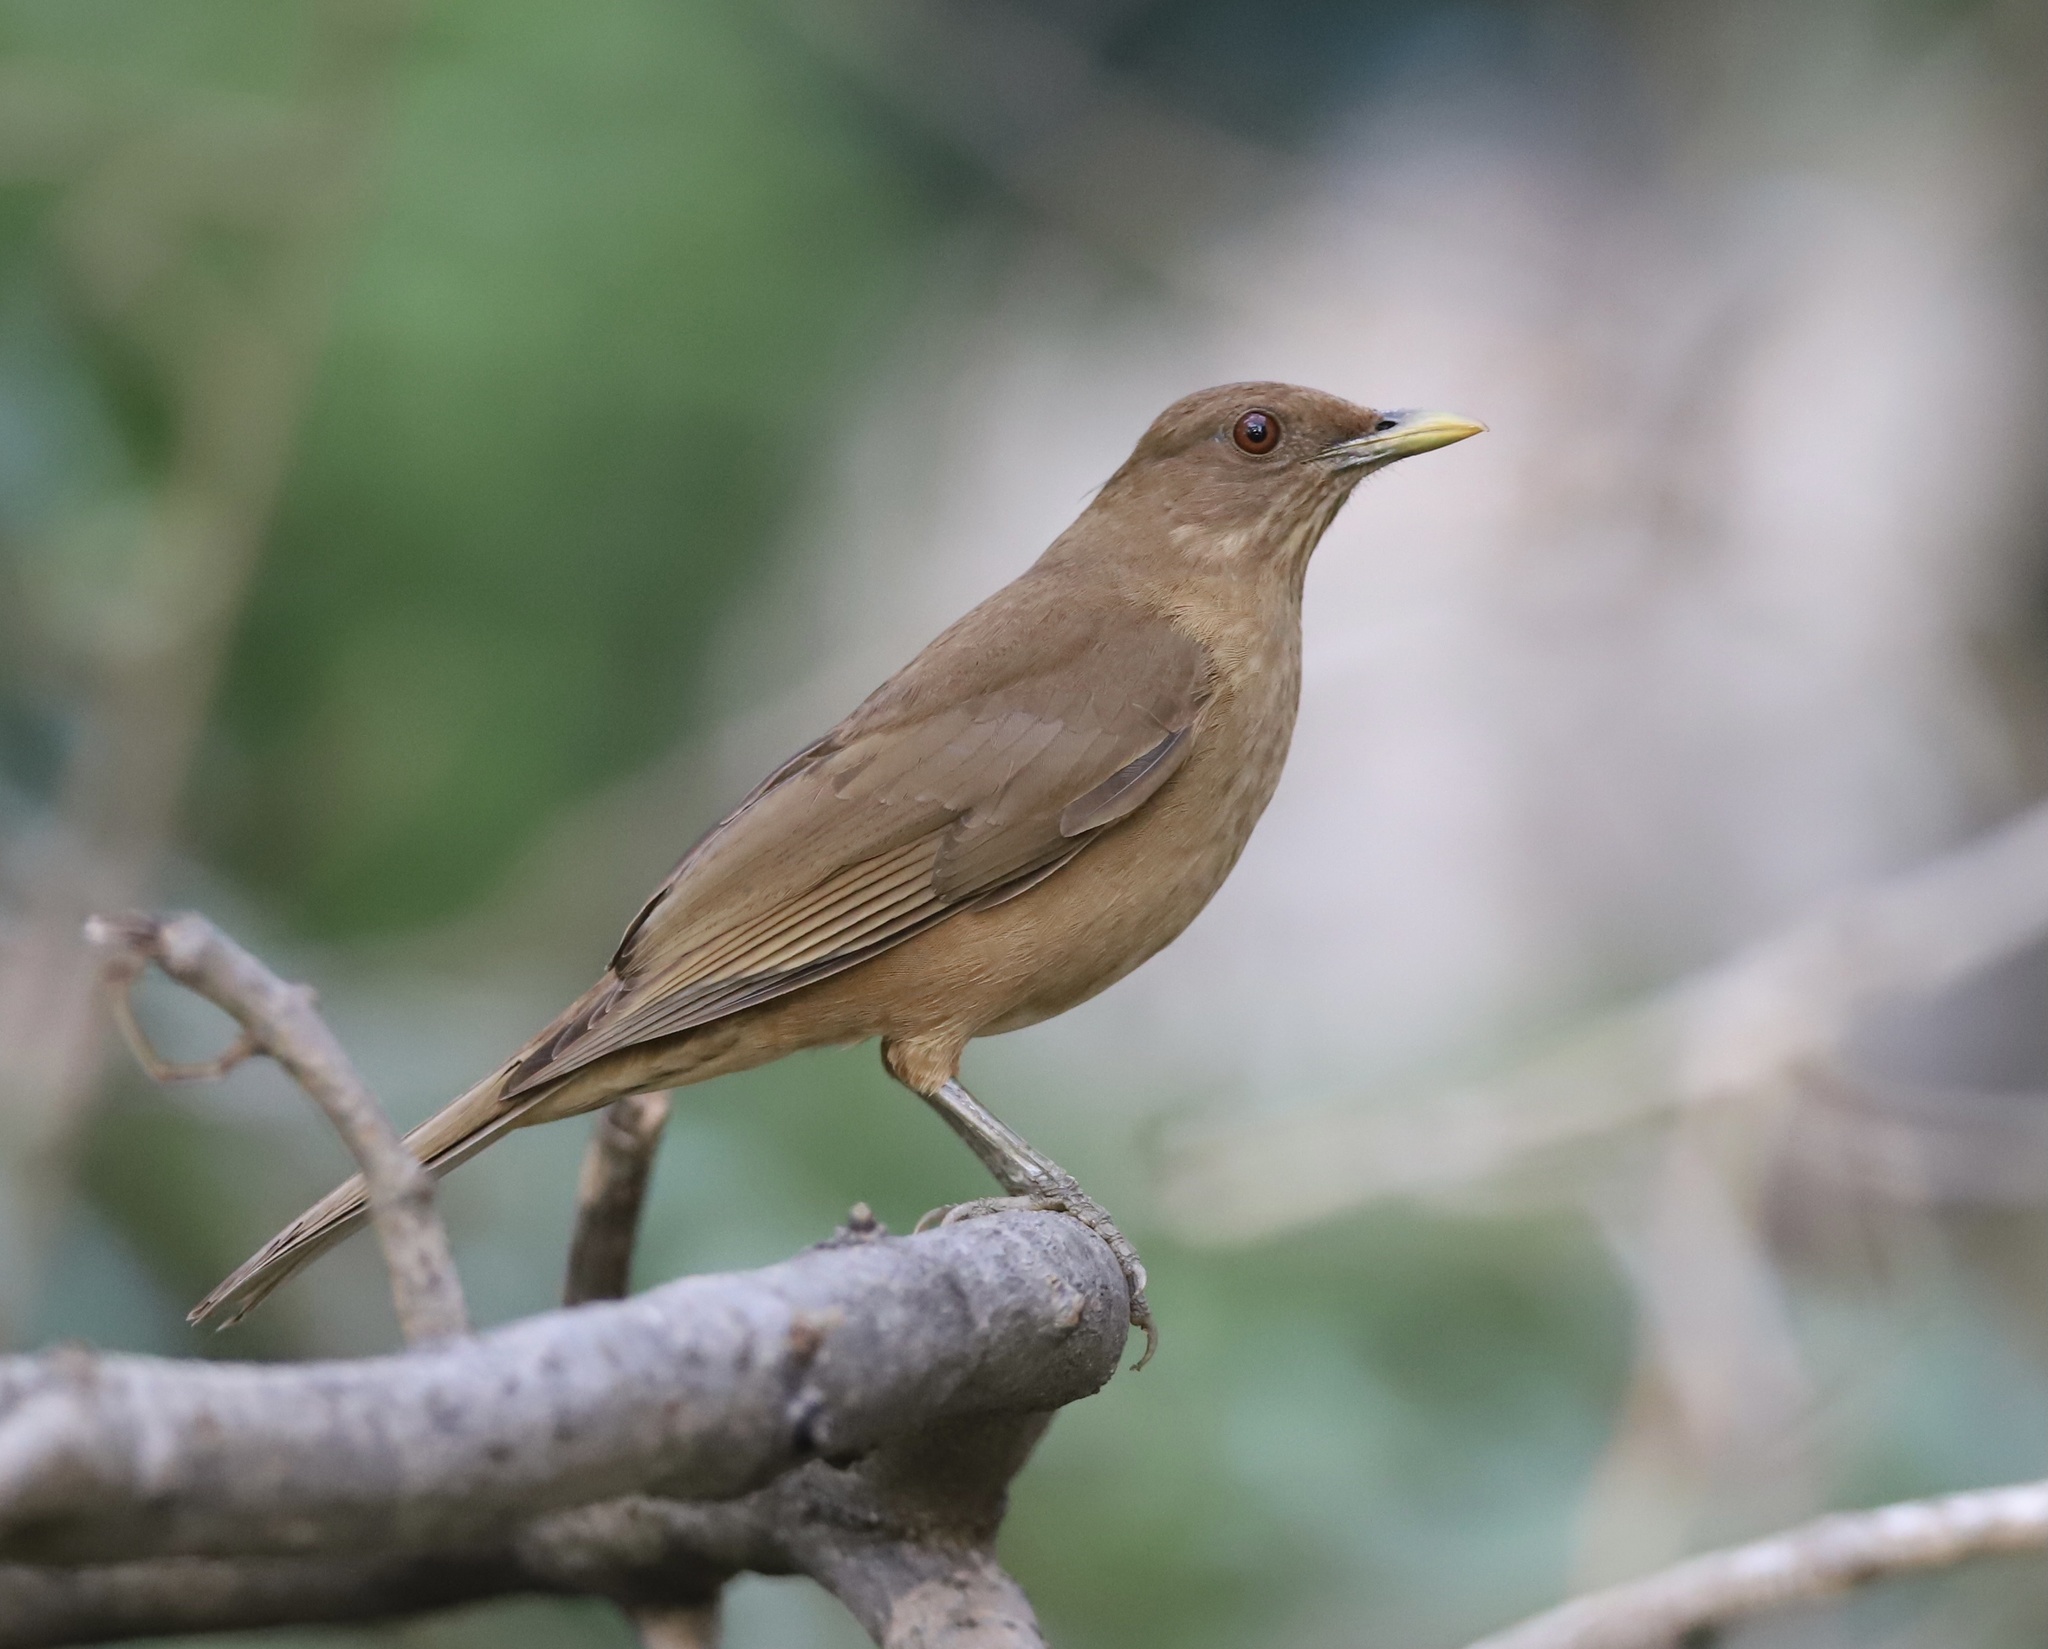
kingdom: Animalia
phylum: Chordata
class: Aves
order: Passeriformes
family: Turdidae
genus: Turdus
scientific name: Turdus grayi
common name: Clay-colored thrush
